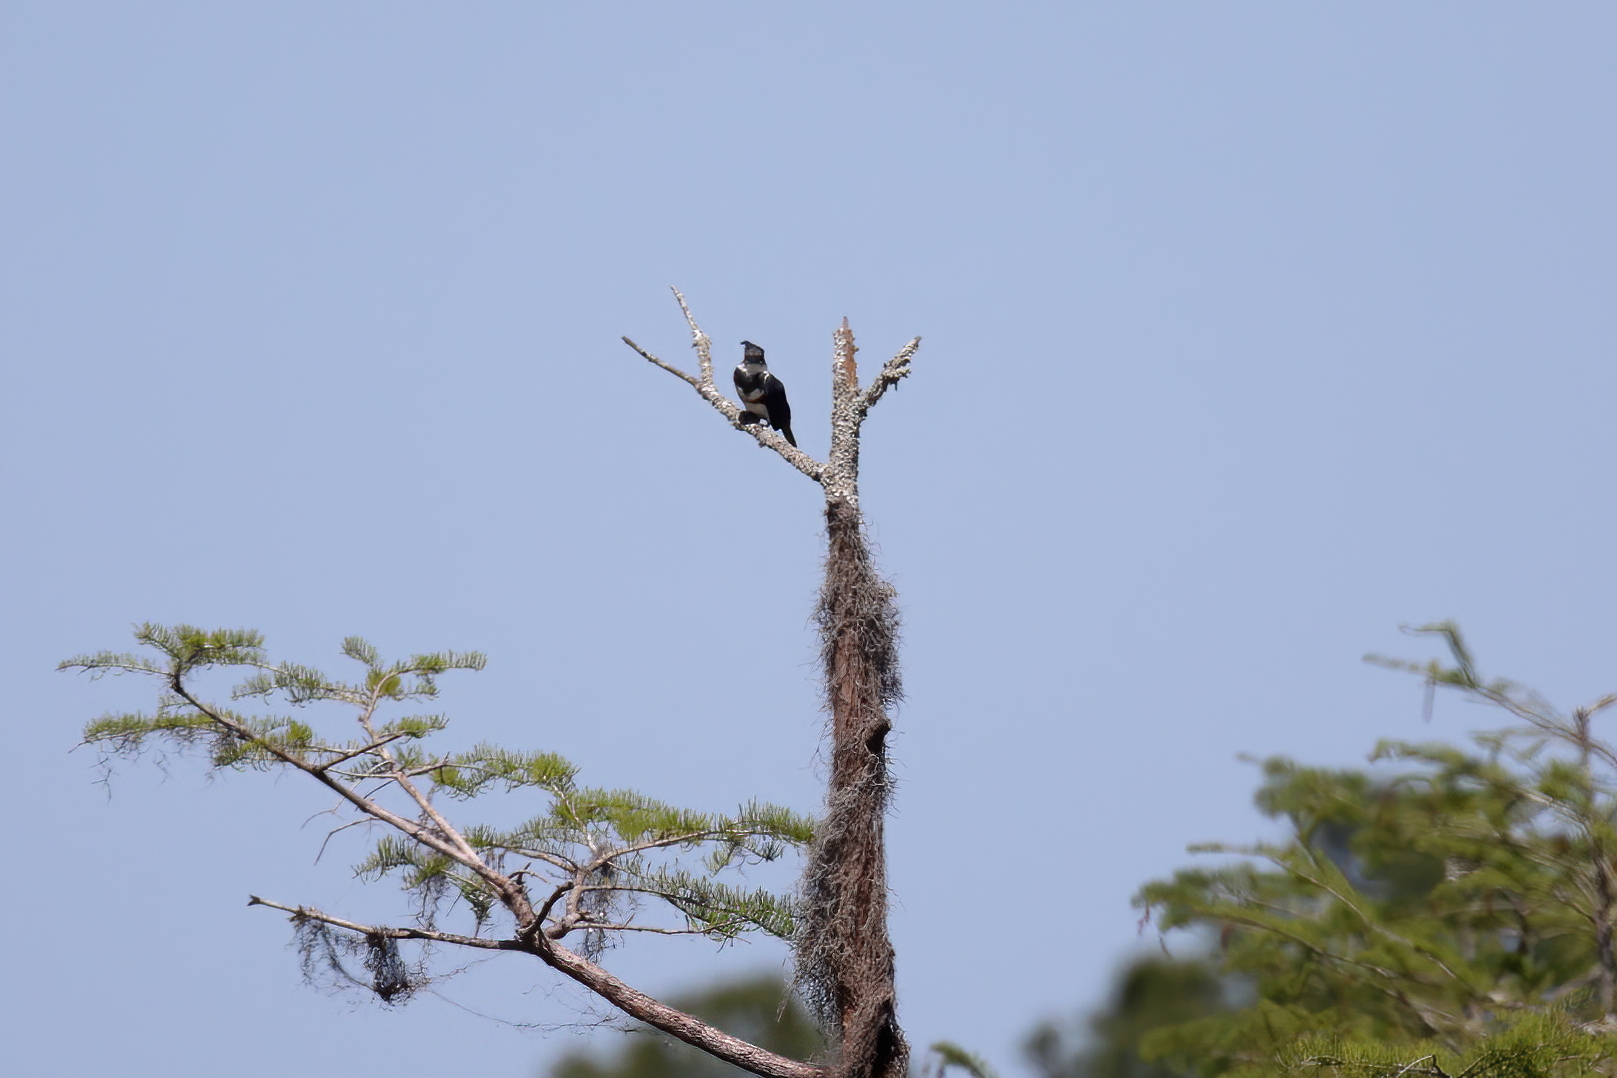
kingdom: Animalia
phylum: Chordata
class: Aves
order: Coraciiformes
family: Alcedinidae
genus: Megaceryle
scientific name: Megaceryle alcyon
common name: Belted kingfisher
